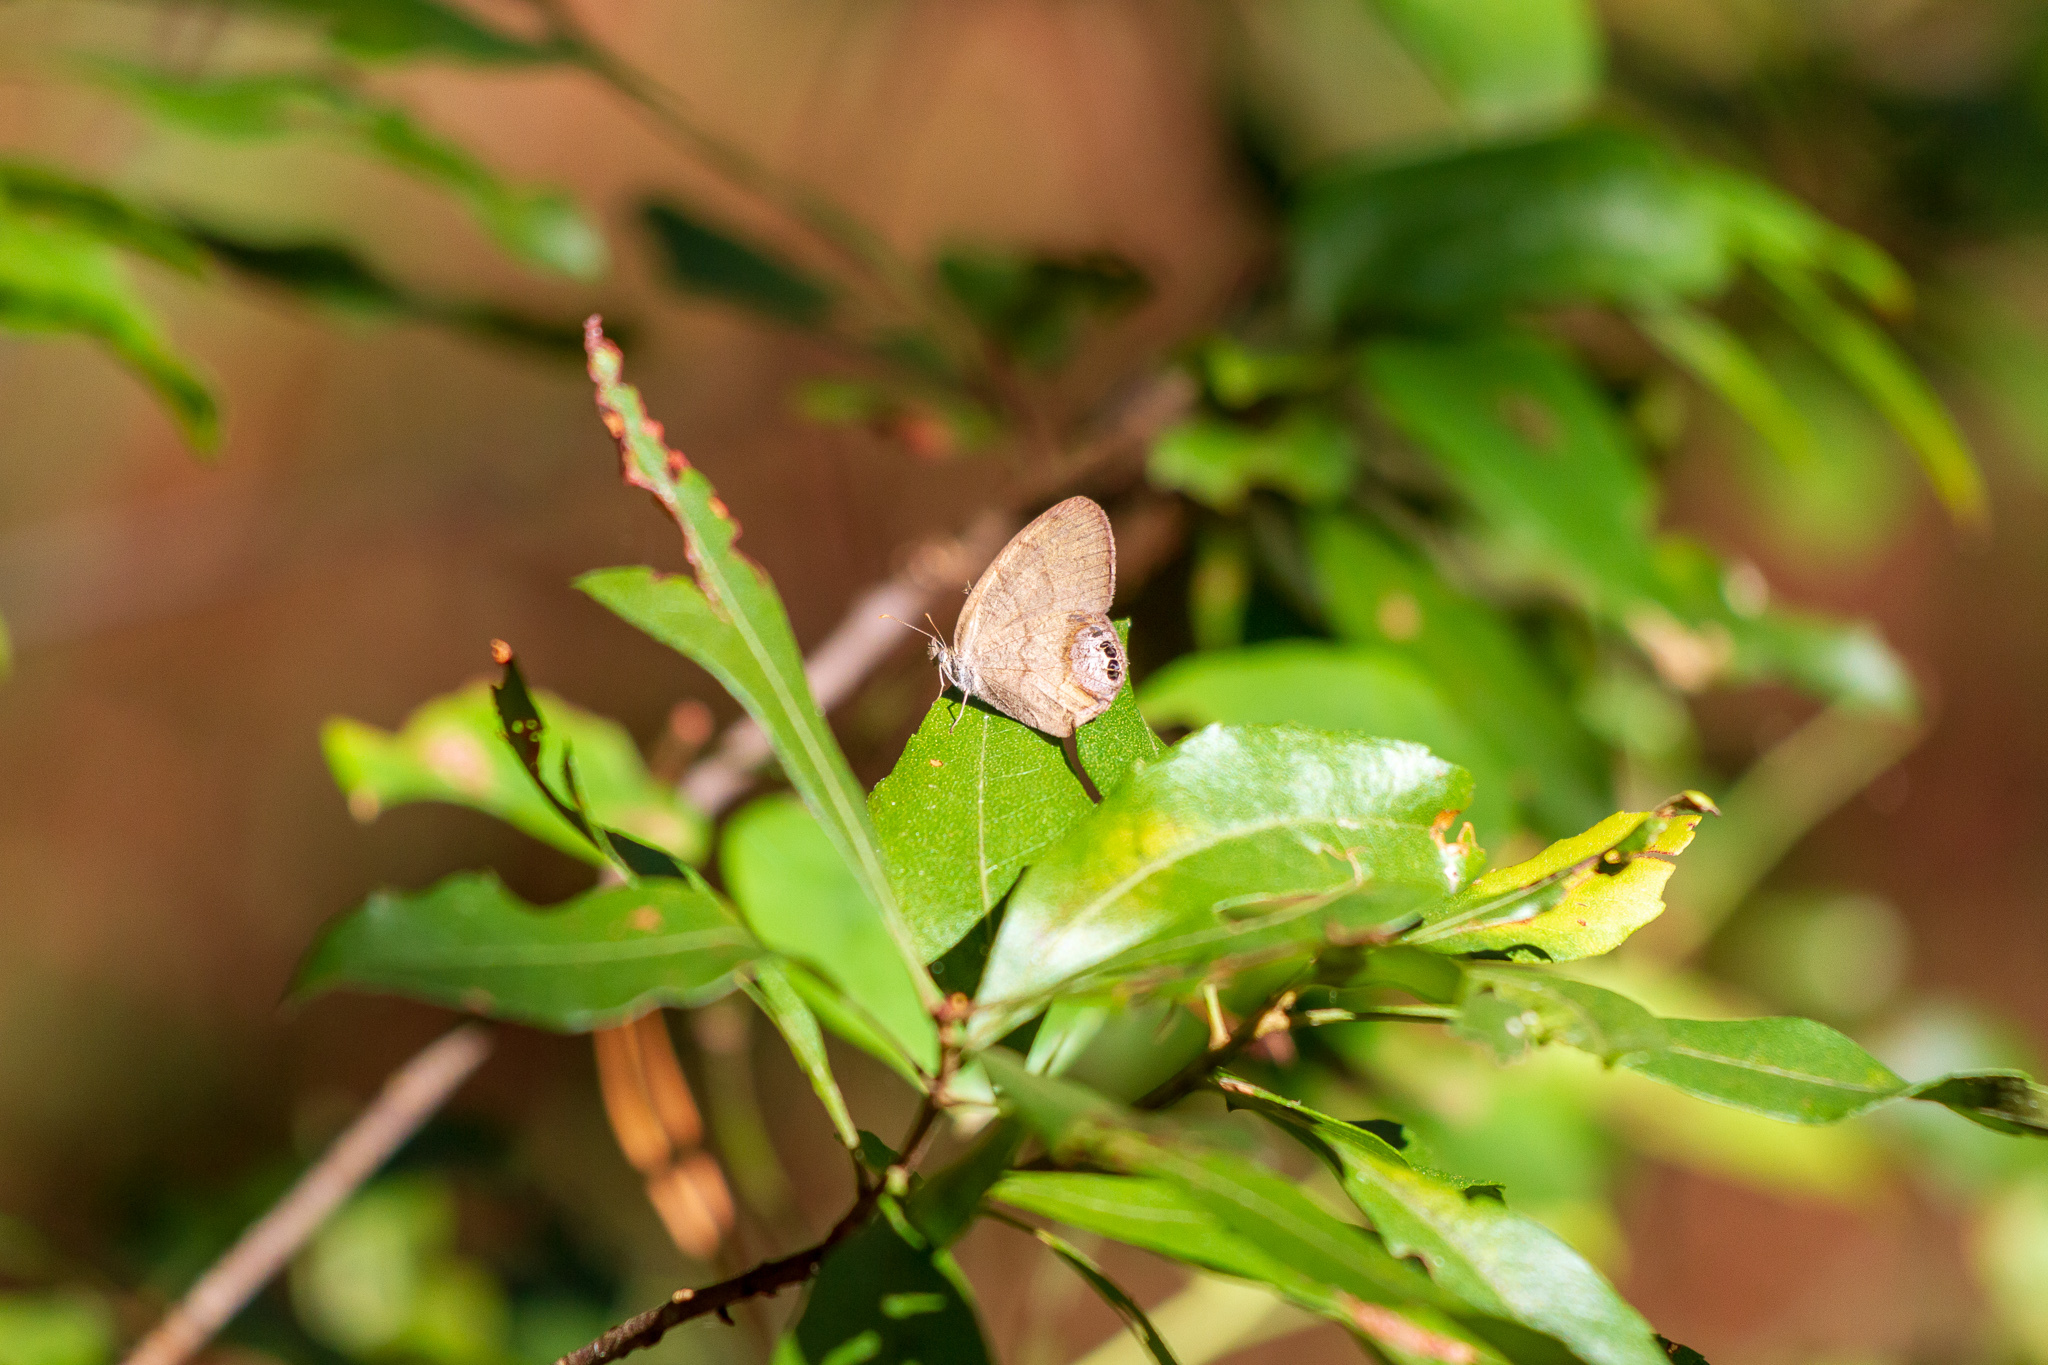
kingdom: Animalia
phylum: Arthropoda
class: Insecta
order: Lepidoptera
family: Nymphalidae
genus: Euptychia
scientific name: Euptychia cornelius
